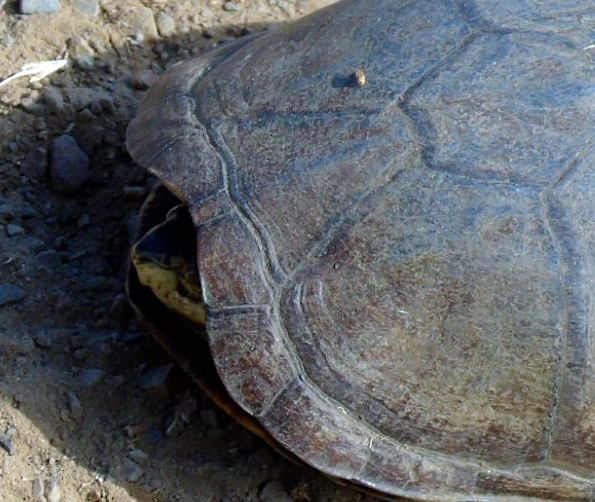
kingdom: Animalia
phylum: Chordata
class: Testudines
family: Kinosternidae
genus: Kinosternon
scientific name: Kinosternon integrum
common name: Mexican mud turtle
